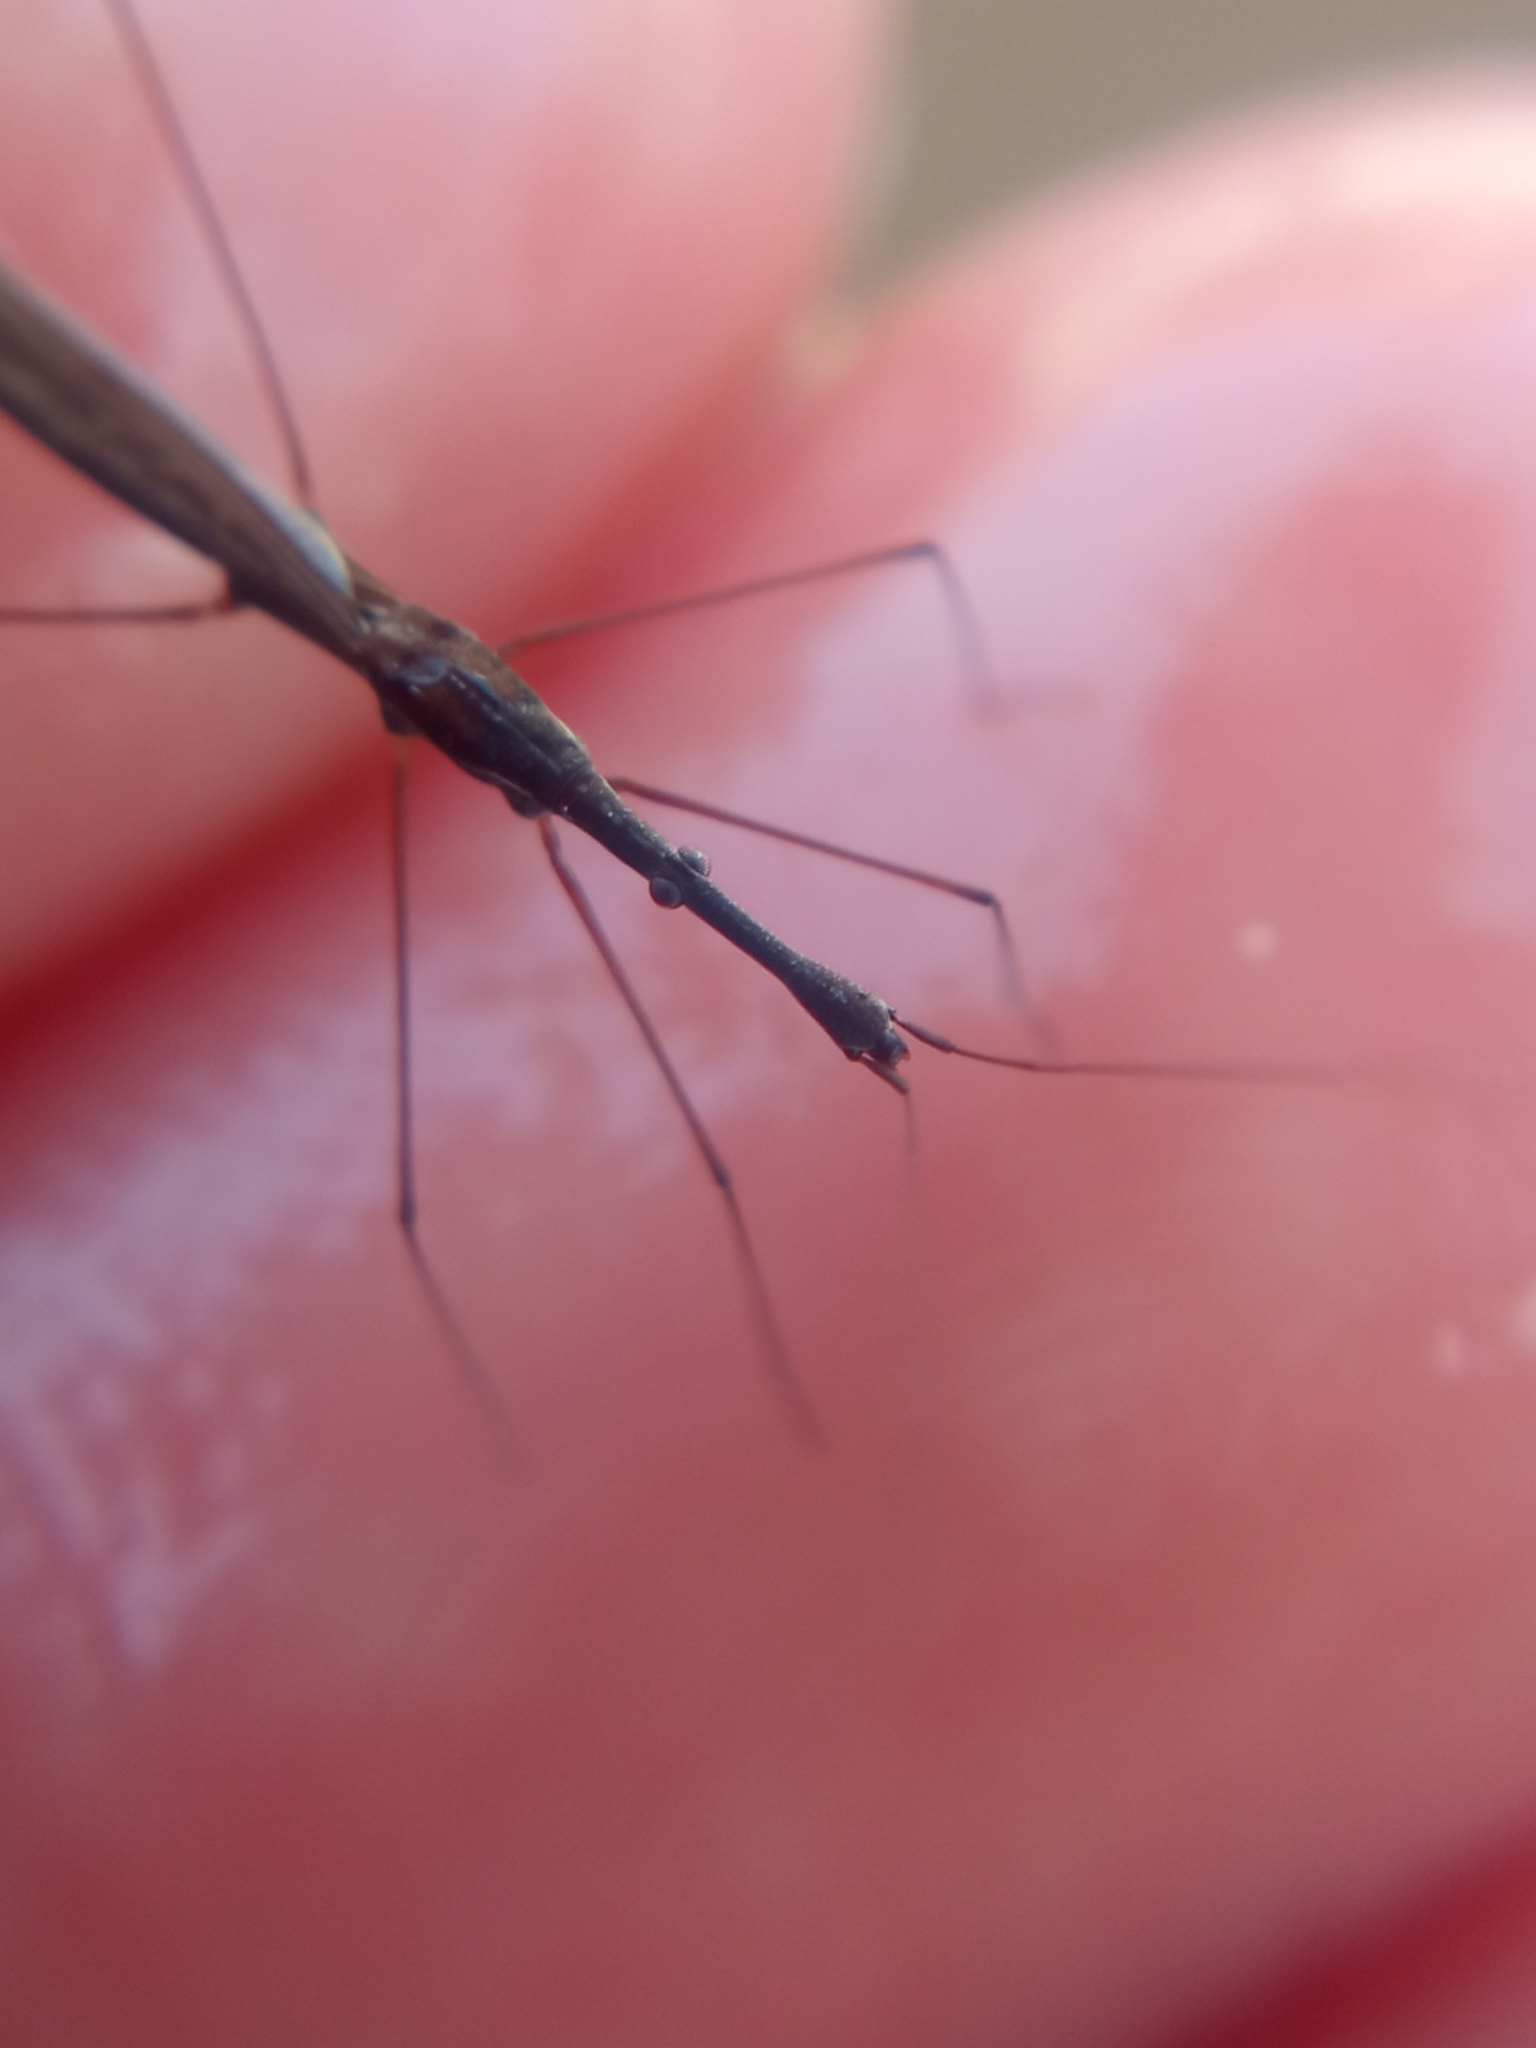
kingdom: Animalia
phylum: Arthropoda
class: Insecta
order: Hemiptera
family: Hydrometridae
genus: Hydrometra
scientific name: Hydrometra stagnorum
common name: Water measurer
